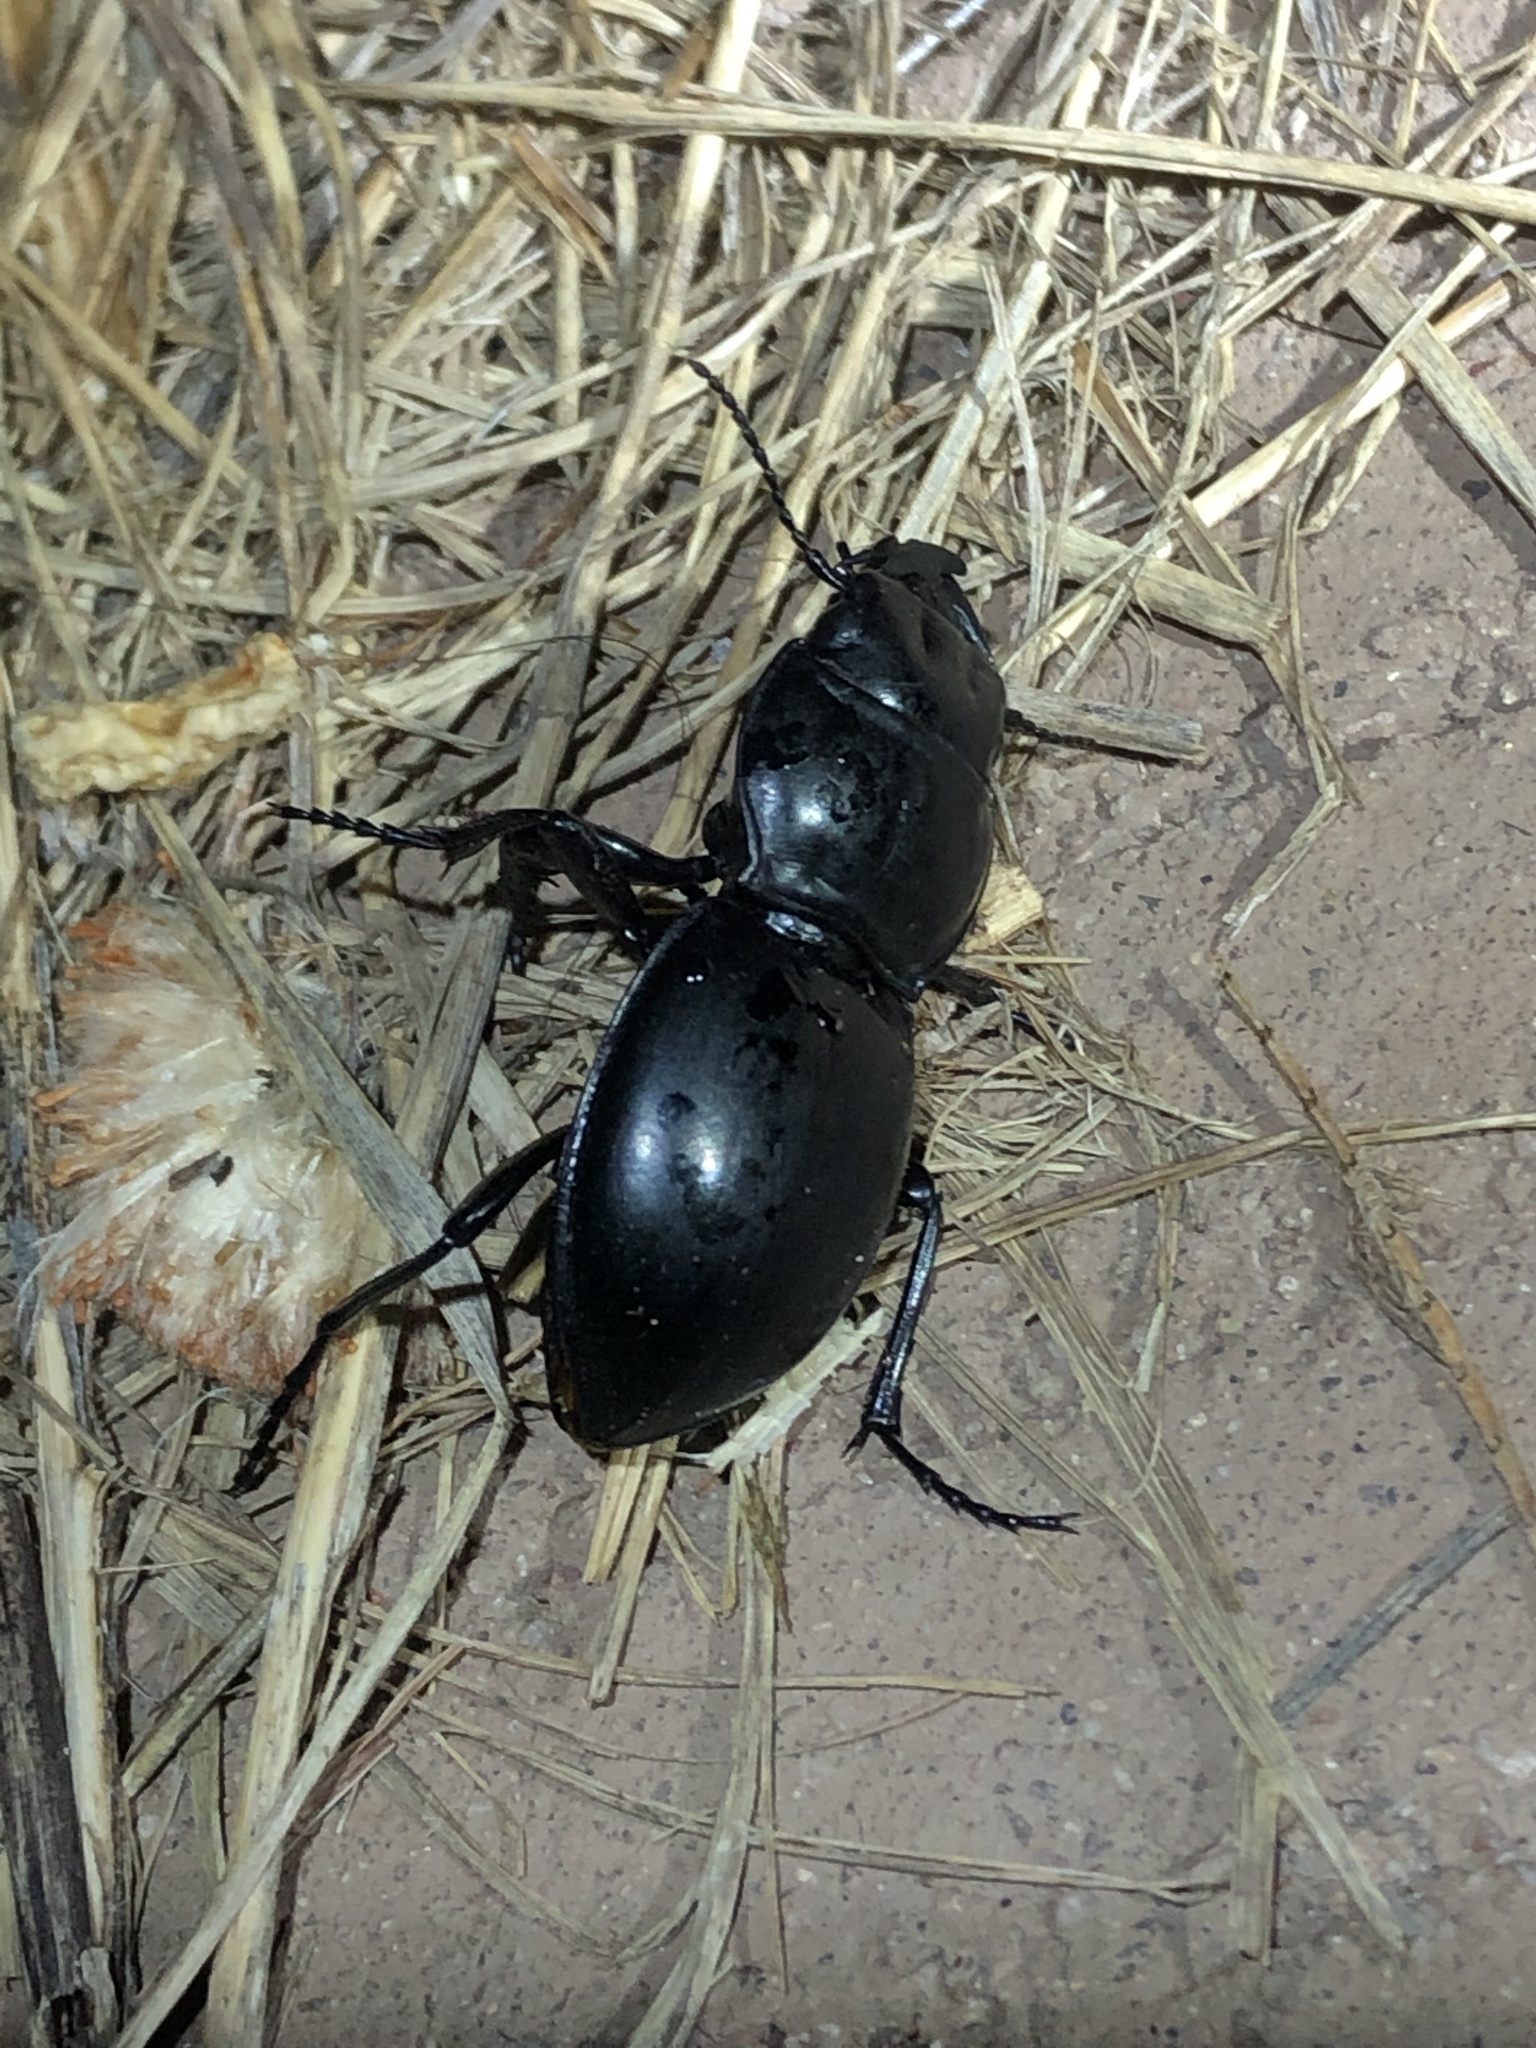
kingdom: Animalia
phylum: Arthropoda
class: Insecta
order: Coleoptera
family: Carabidae
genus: Pasimachus
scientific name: Pasimachus californicus
